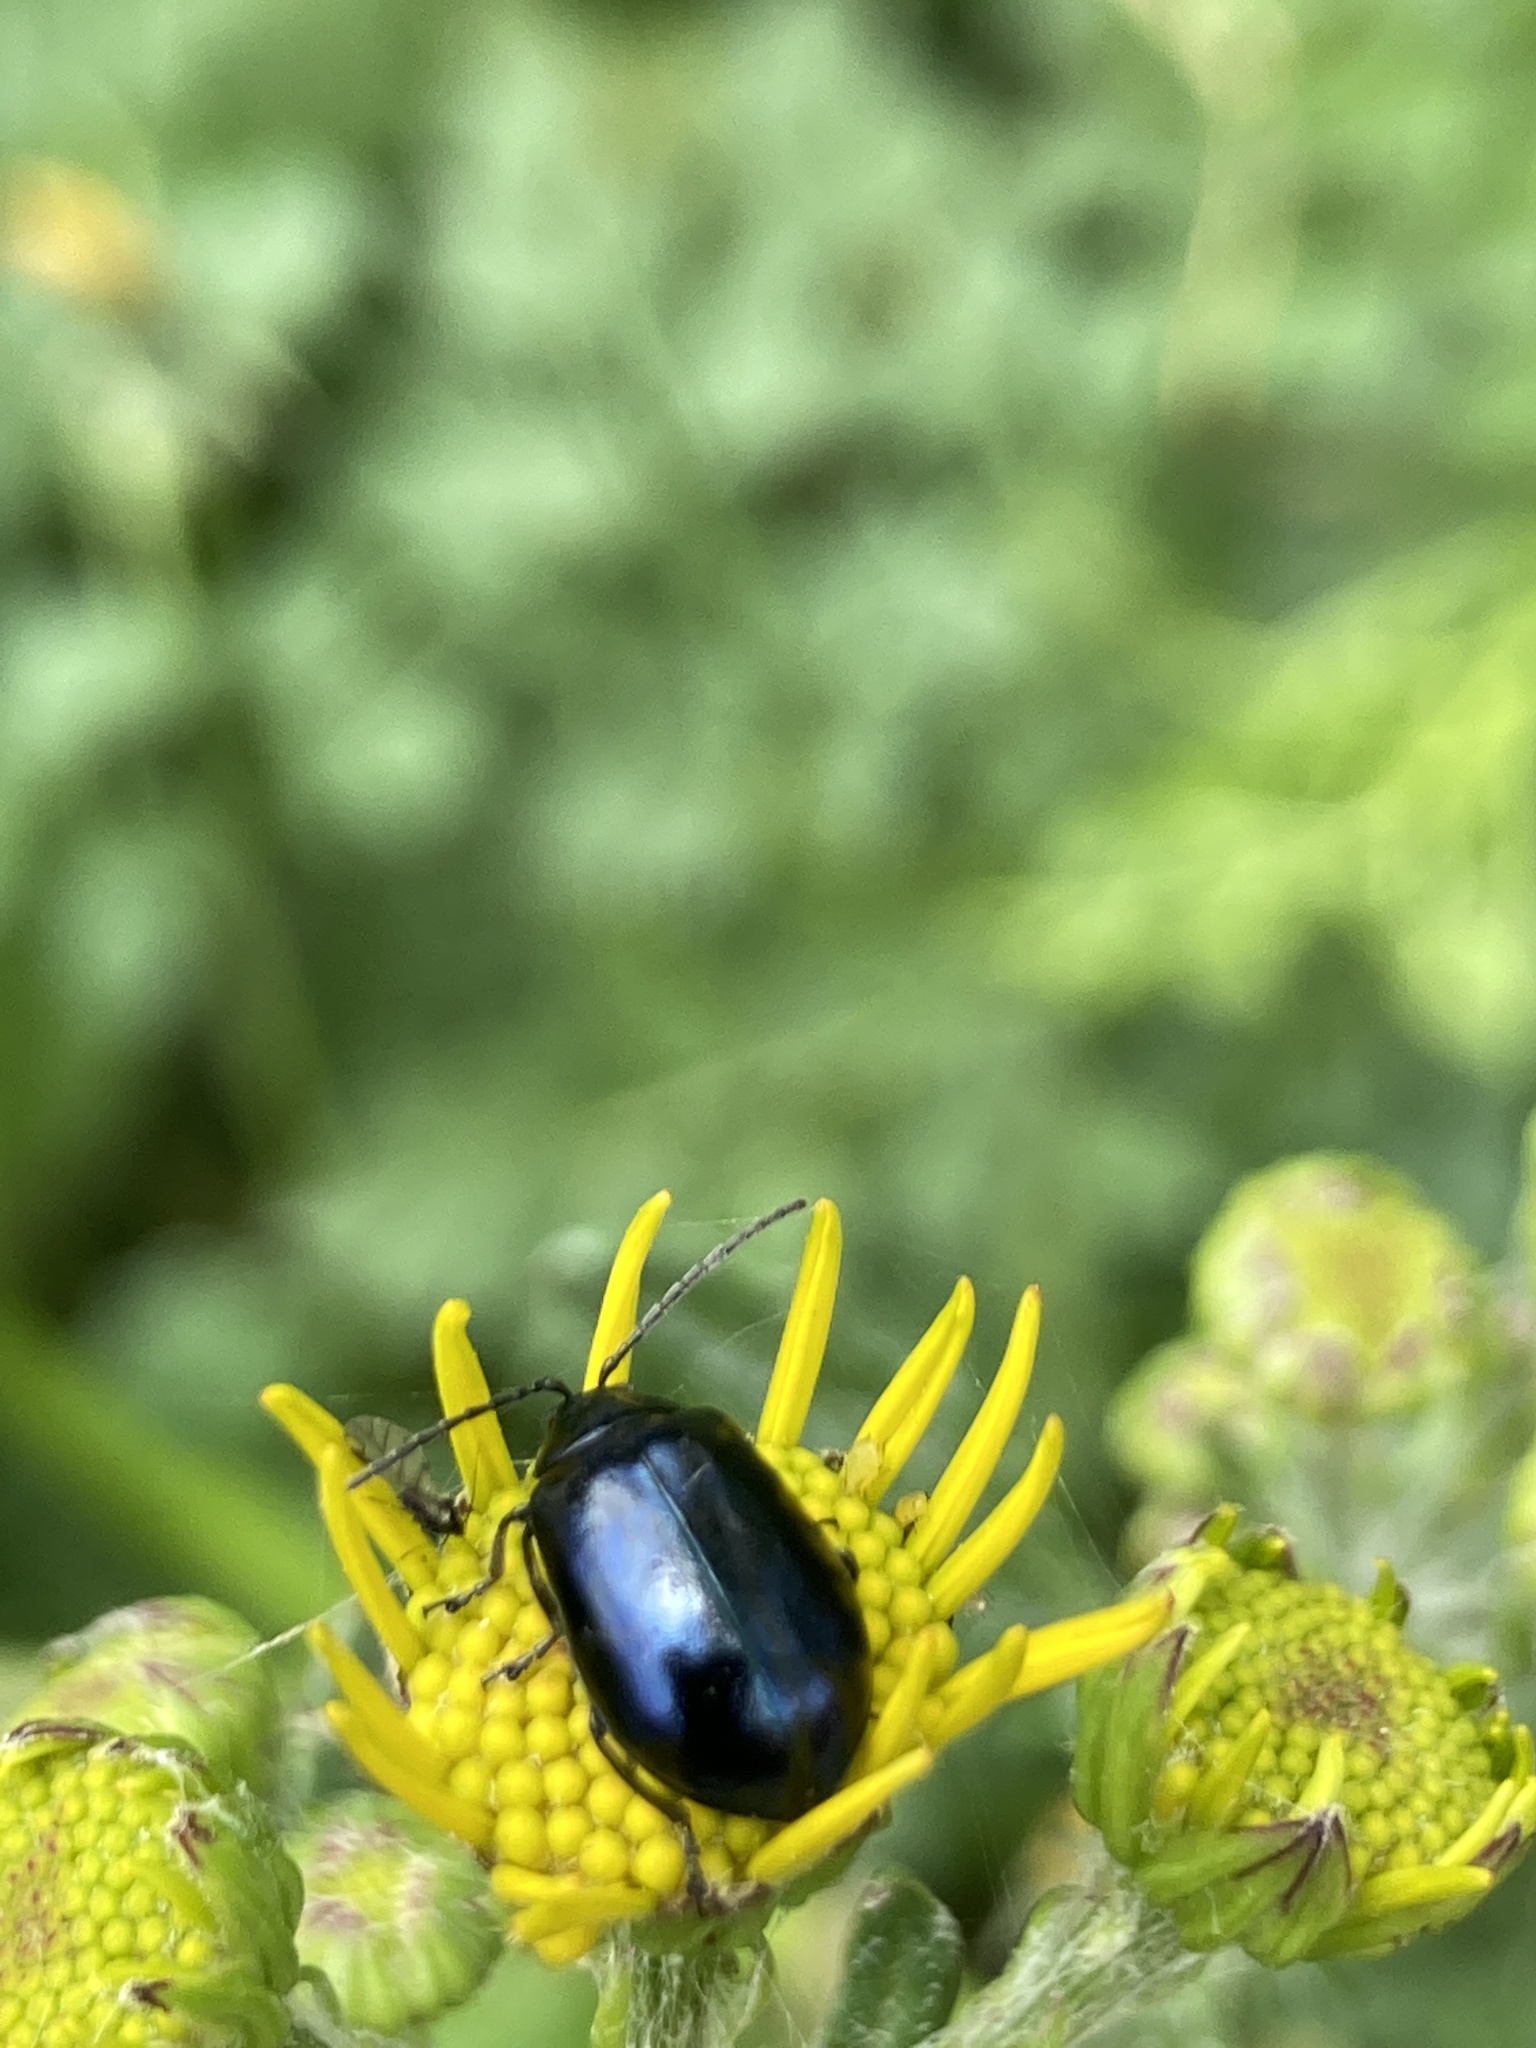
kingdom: Animalia
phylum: Arthropoda
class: Insecta
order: Coleoptera
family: Chrysomelidae
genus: Agelastica
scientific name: Agelastica alni
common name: Alder leaf beetle
